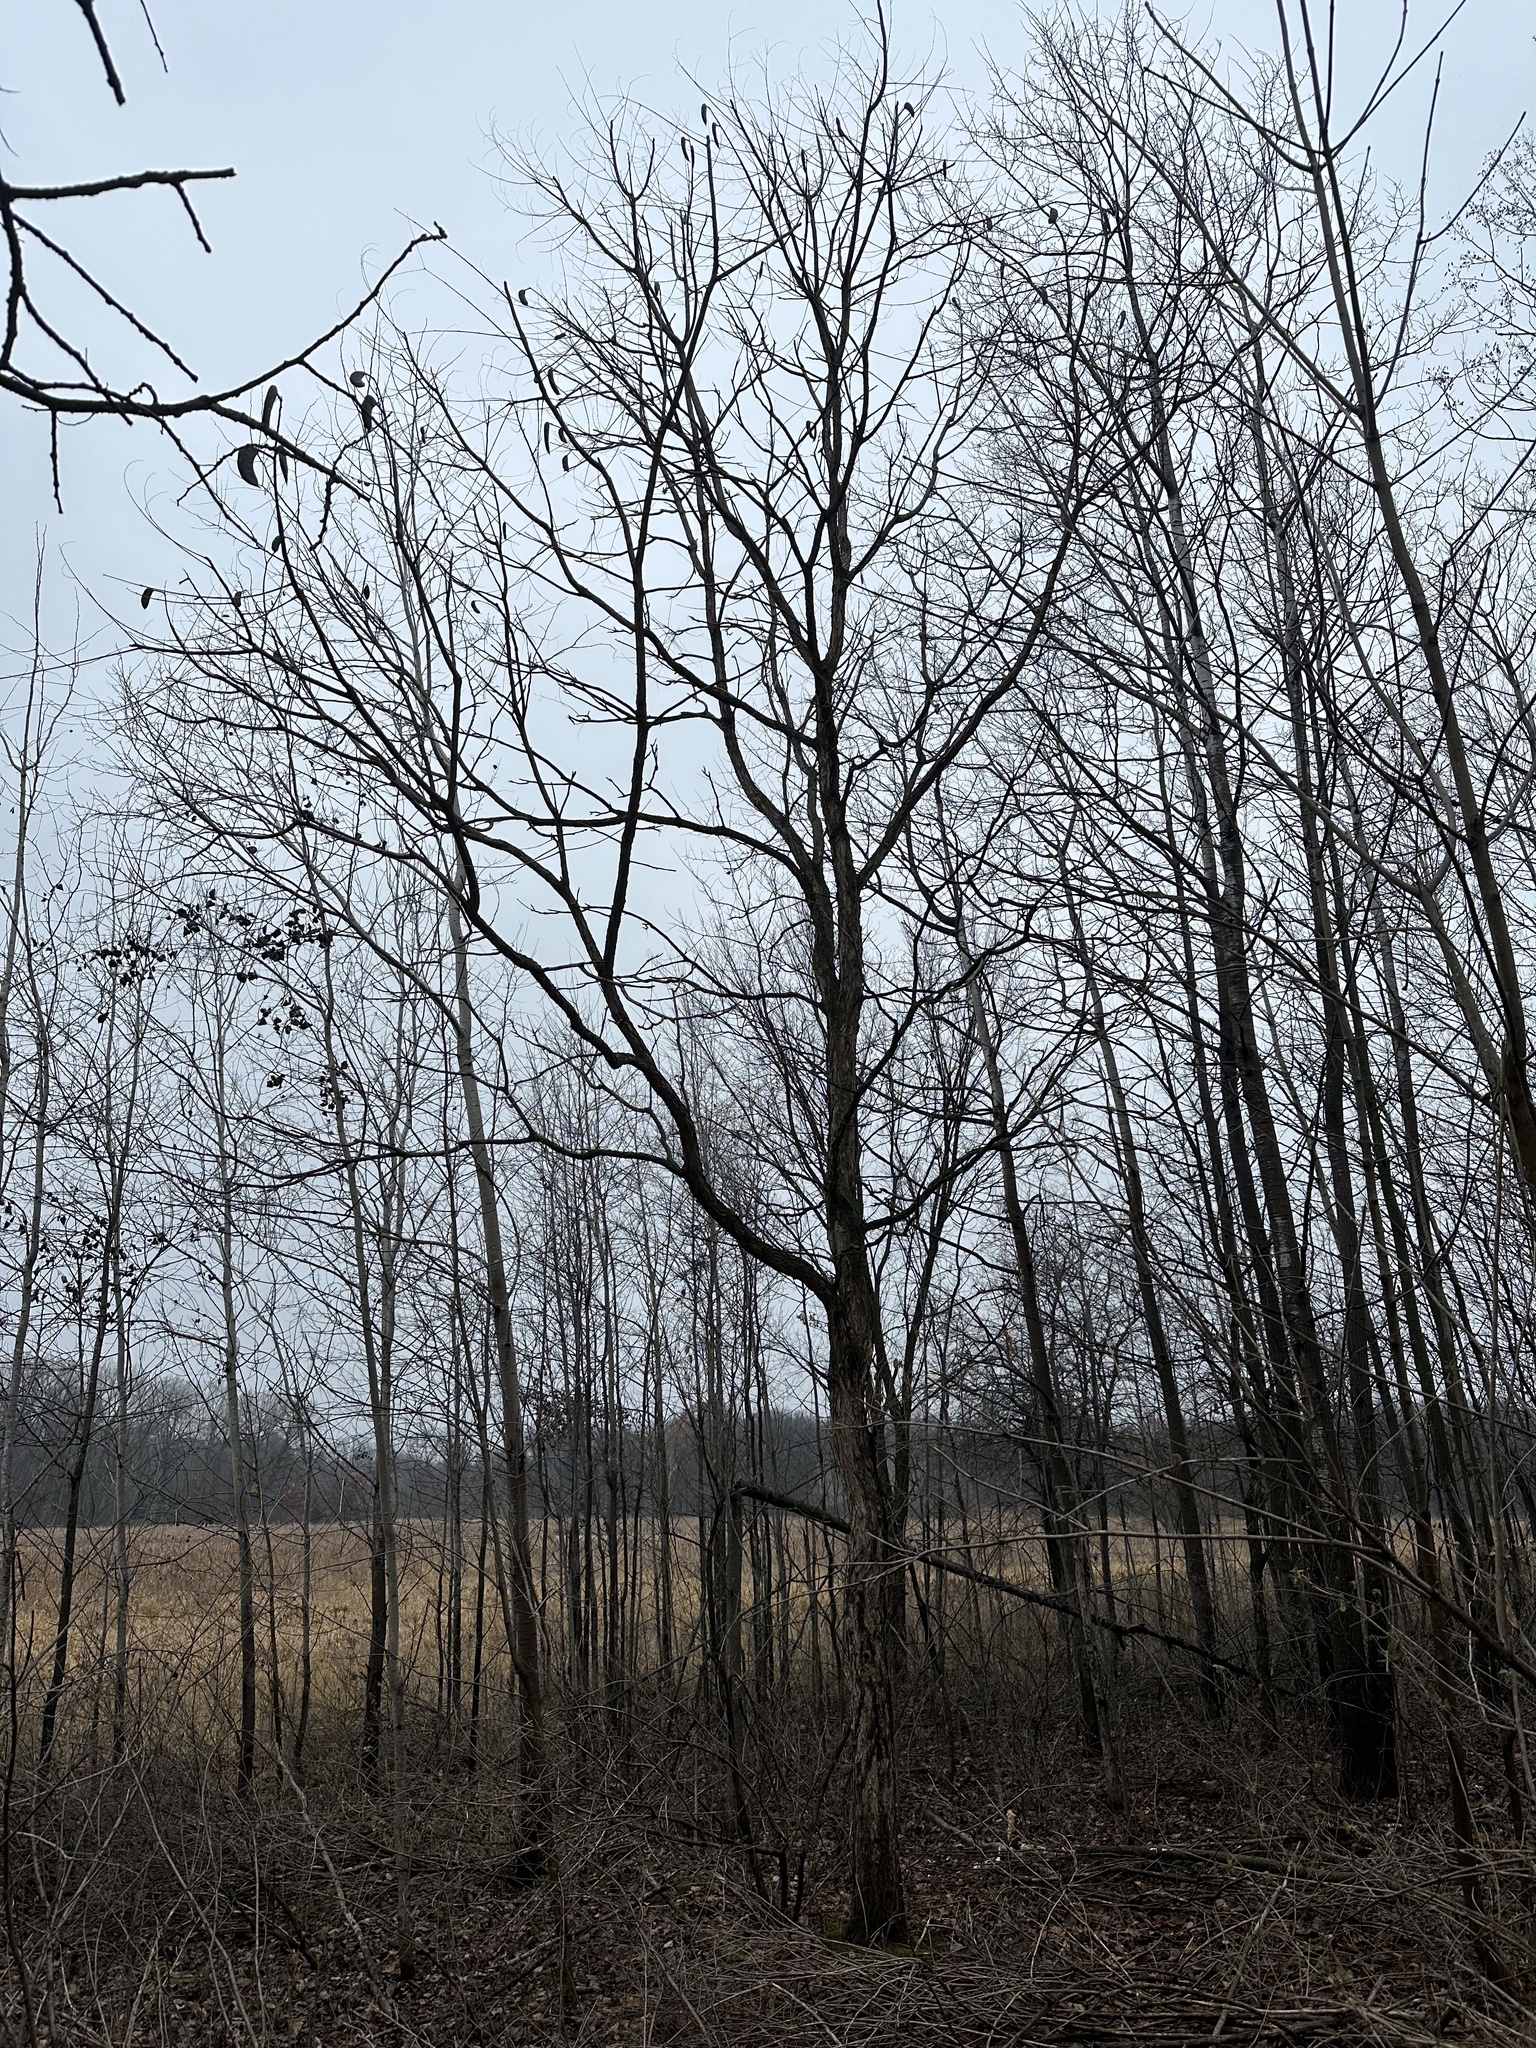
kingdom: Plantae
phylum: Tracheophyta
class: Magnoliopsida
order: Fabales
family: Fabaceae
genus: Gymnocladus
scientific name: Gymnocladus dioicus
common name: Kentucky coffee-tree
